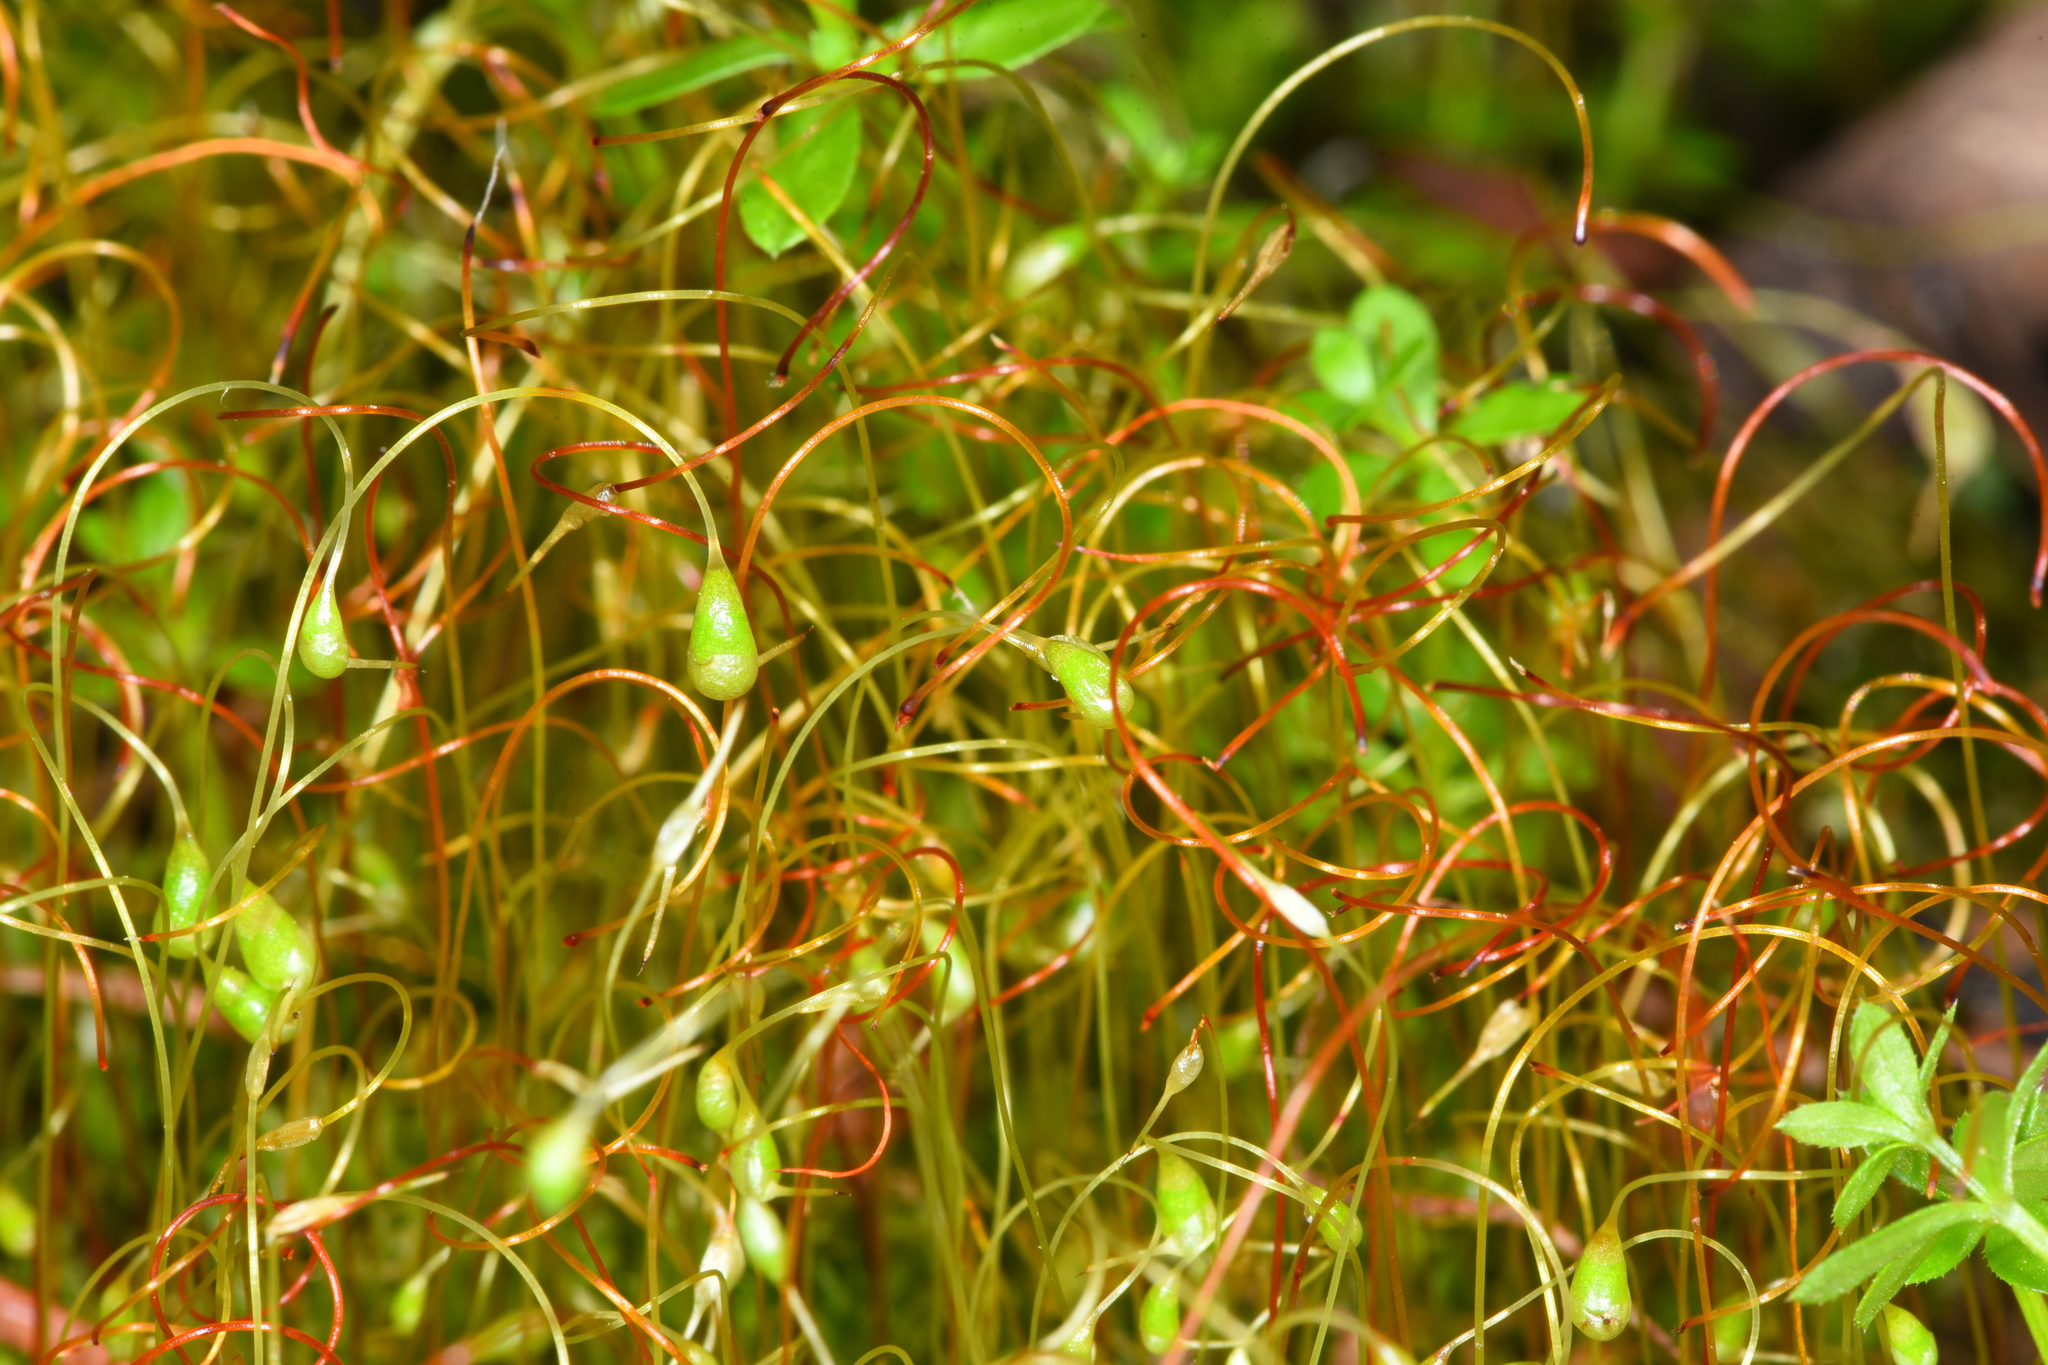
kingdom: Plantae
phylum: Bryophyta
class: Bryopsida
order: Funariales
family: Funariaceae
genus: Funaria
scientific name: Funaria hygrometrica
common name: Common cord moss
